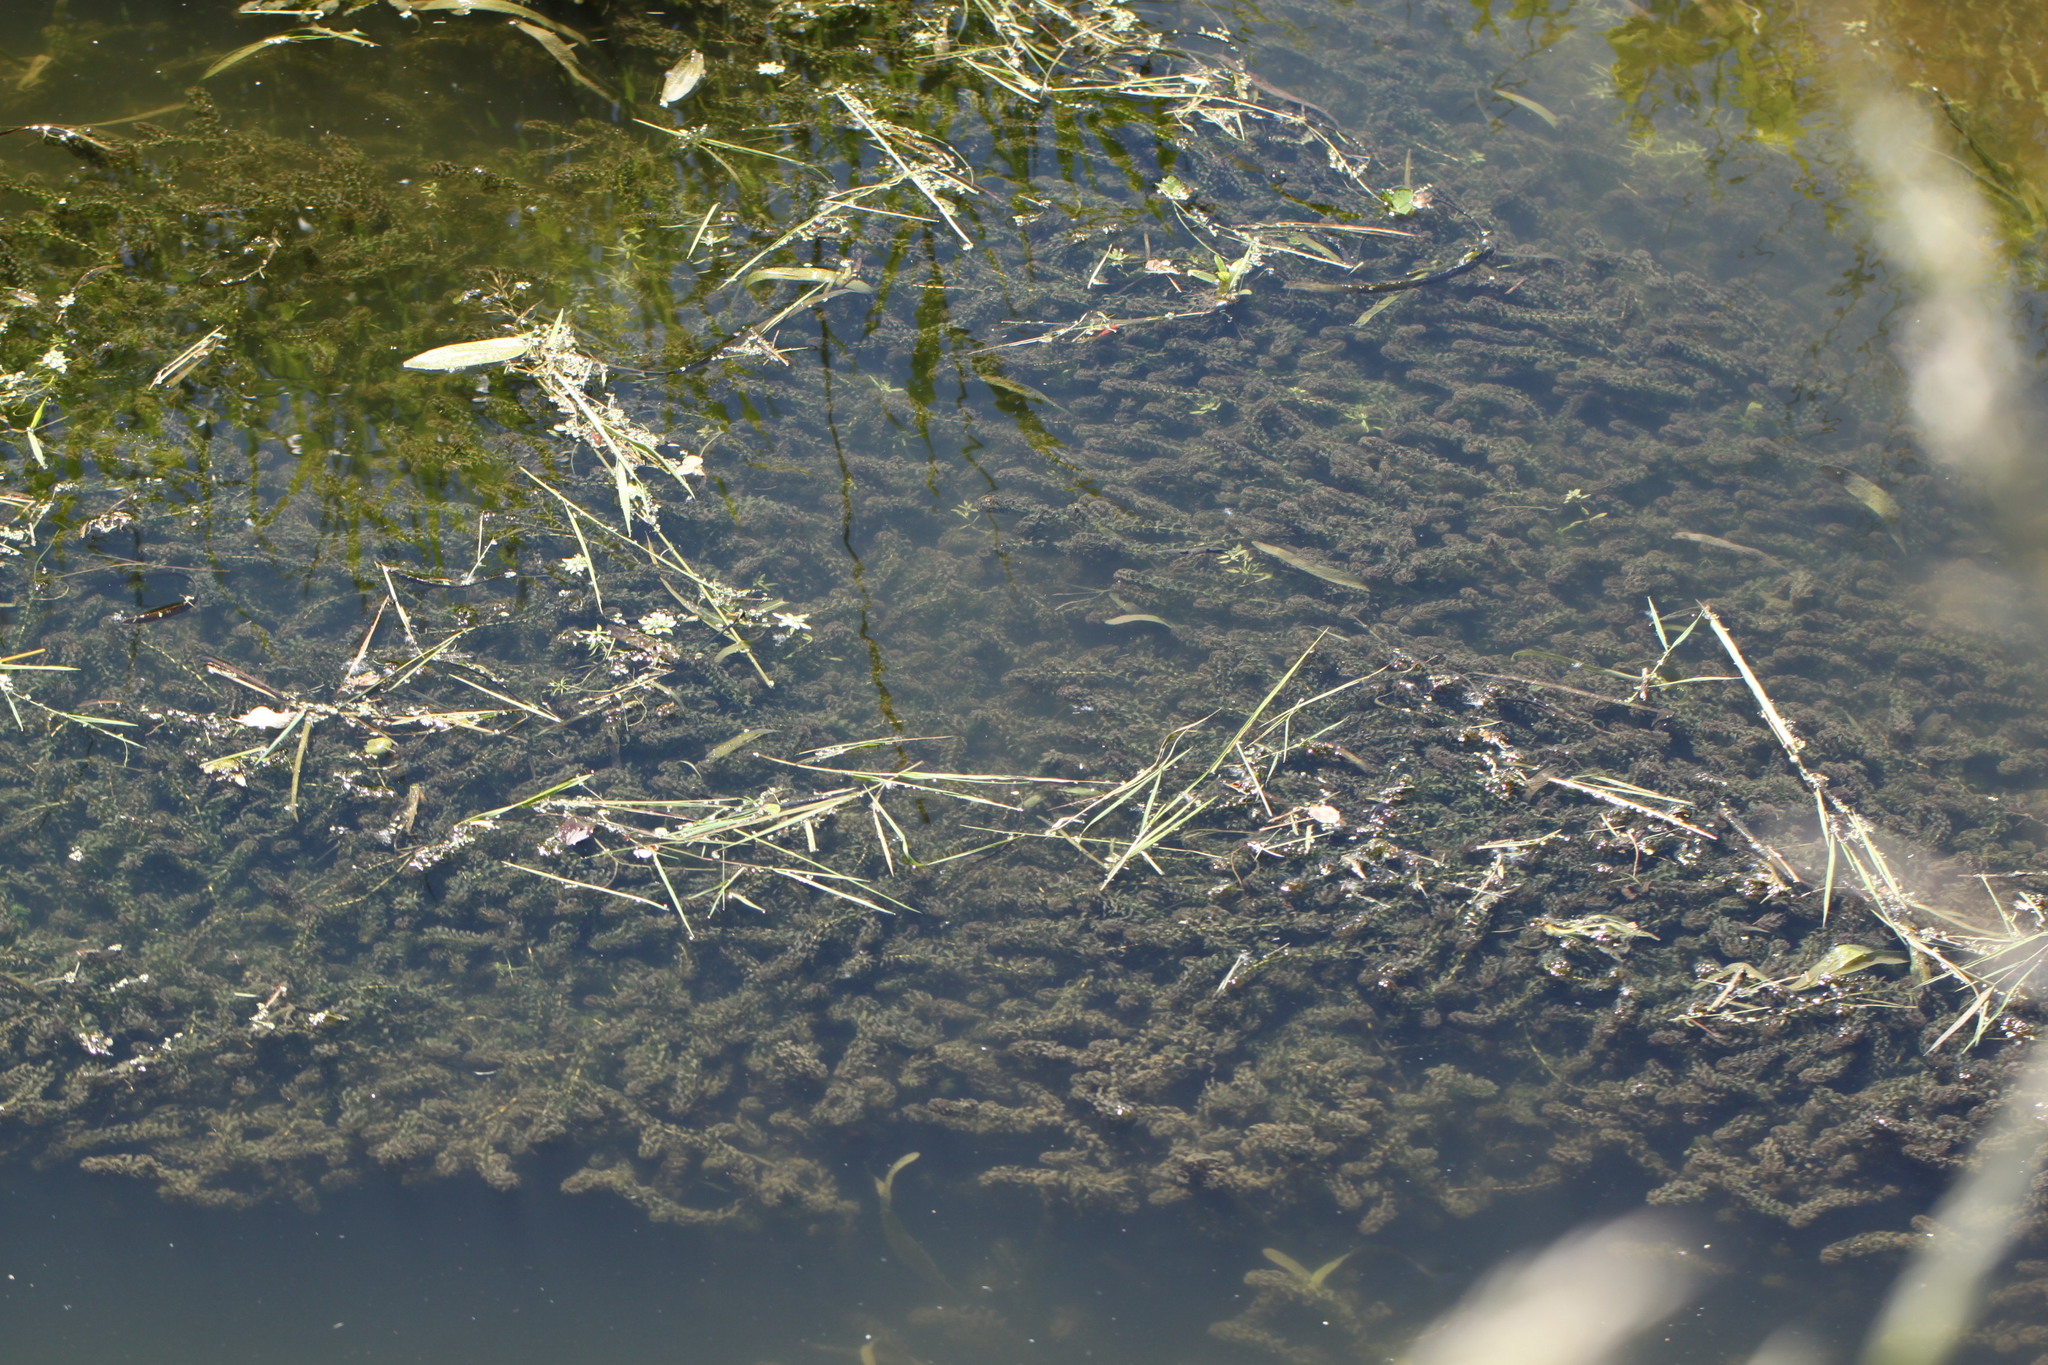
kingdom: Plantae
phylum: Tracheophyta
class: Liliopsida
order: Alismatales
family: Hydrocharitaceae
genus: Elodea
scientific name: Elodea nuttallii
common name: Nuttall's waterweed
